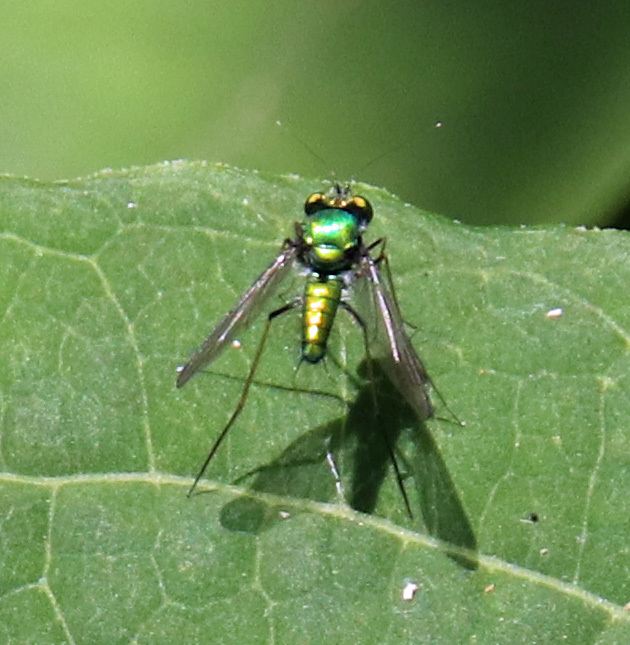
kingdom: Animalia
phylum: Arthropoda
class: Insecta
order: Diptera
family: Dolichopodidae
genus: Condylostylus
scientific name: Condylostylus comatus
